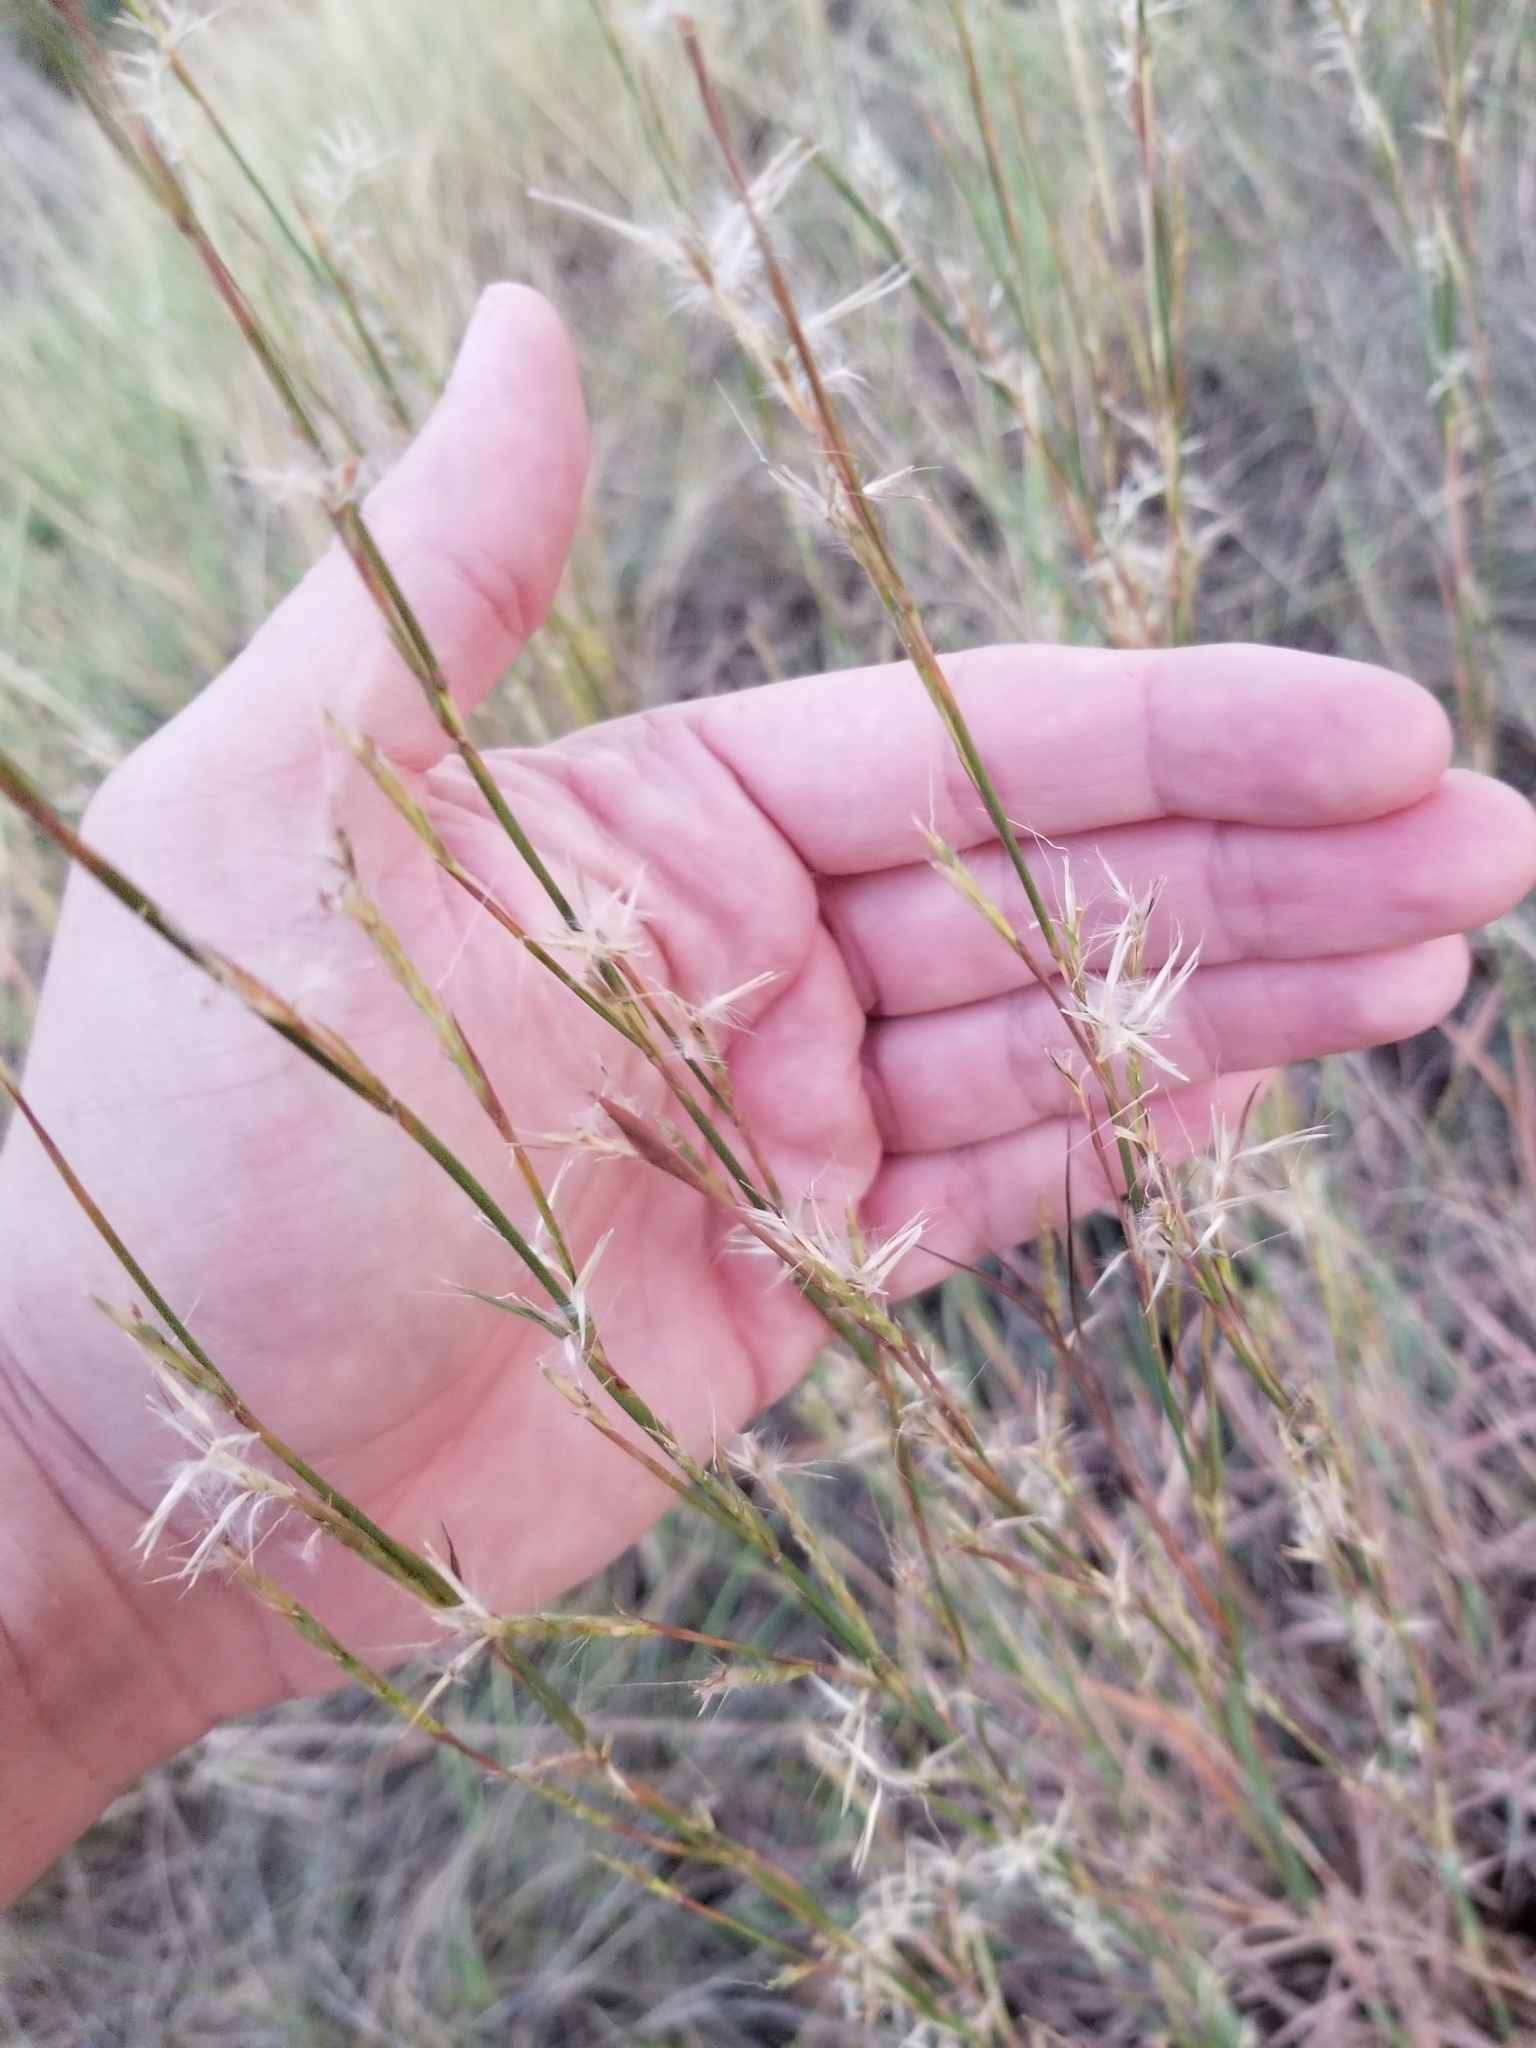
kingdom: Plantae
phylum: Tracheophyta
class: Liliopsida
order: Poales
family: Poaceae
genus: Schizachyrium
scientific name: Schizachyrium scoparium
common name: Little bluestem
